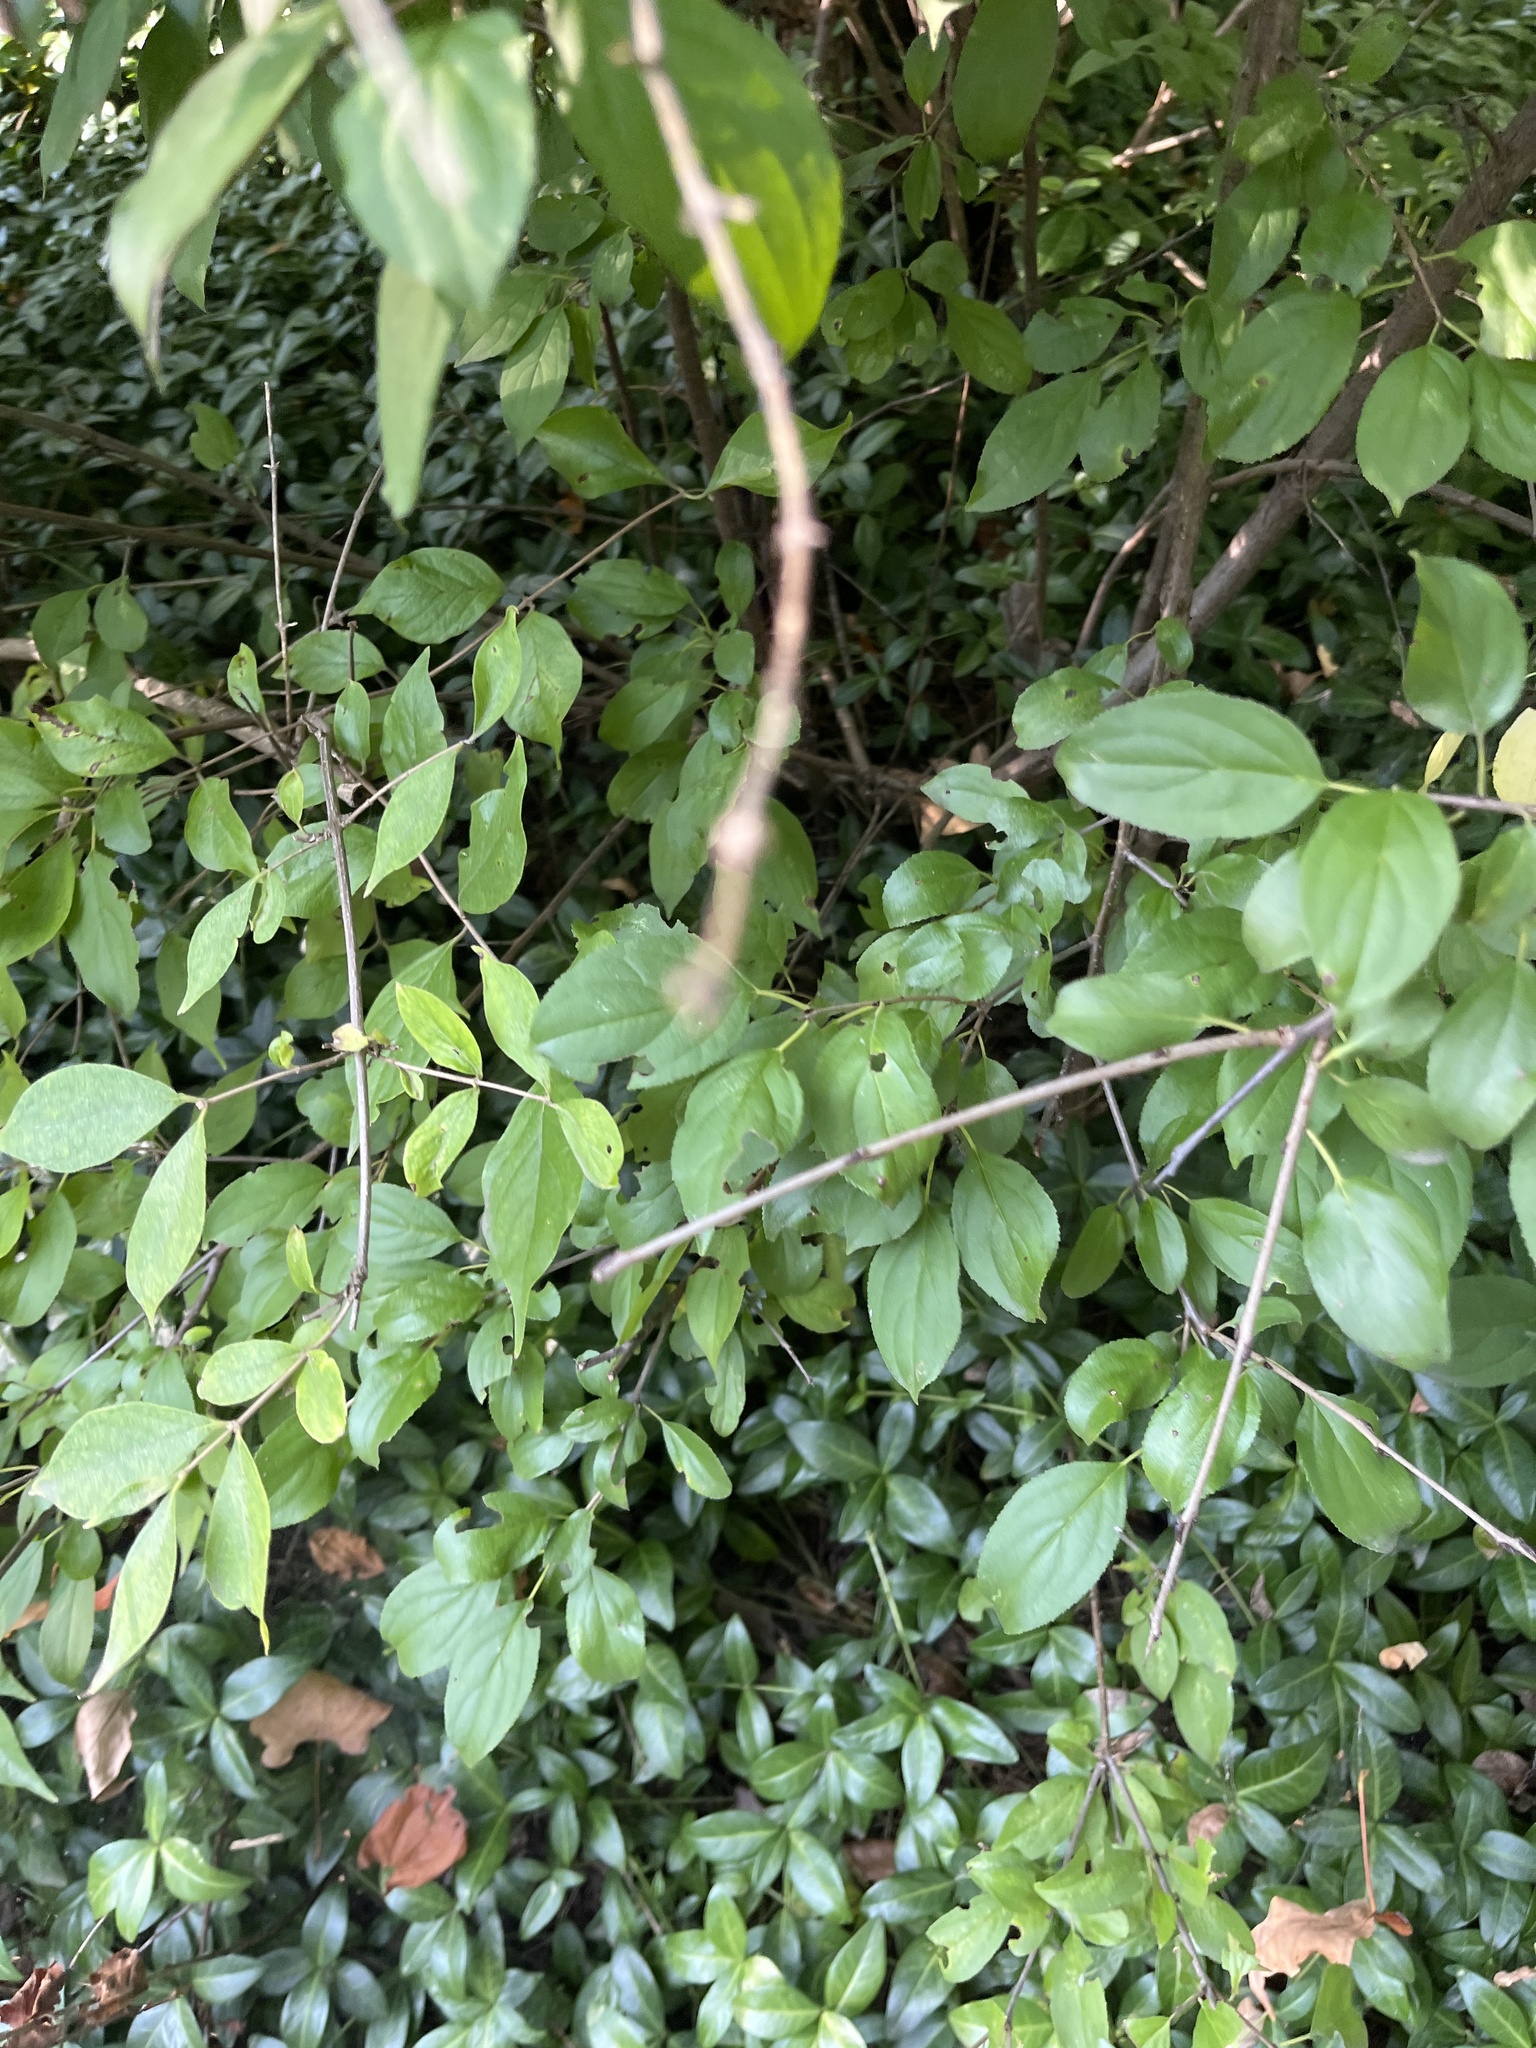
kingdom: Plantae
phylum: Tracheophyta
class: Magnoliopsida
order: Rosales
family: Rhamnaceae
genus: Rhamnus
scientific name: Rhamnus cathartica
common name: Common buckthorn
